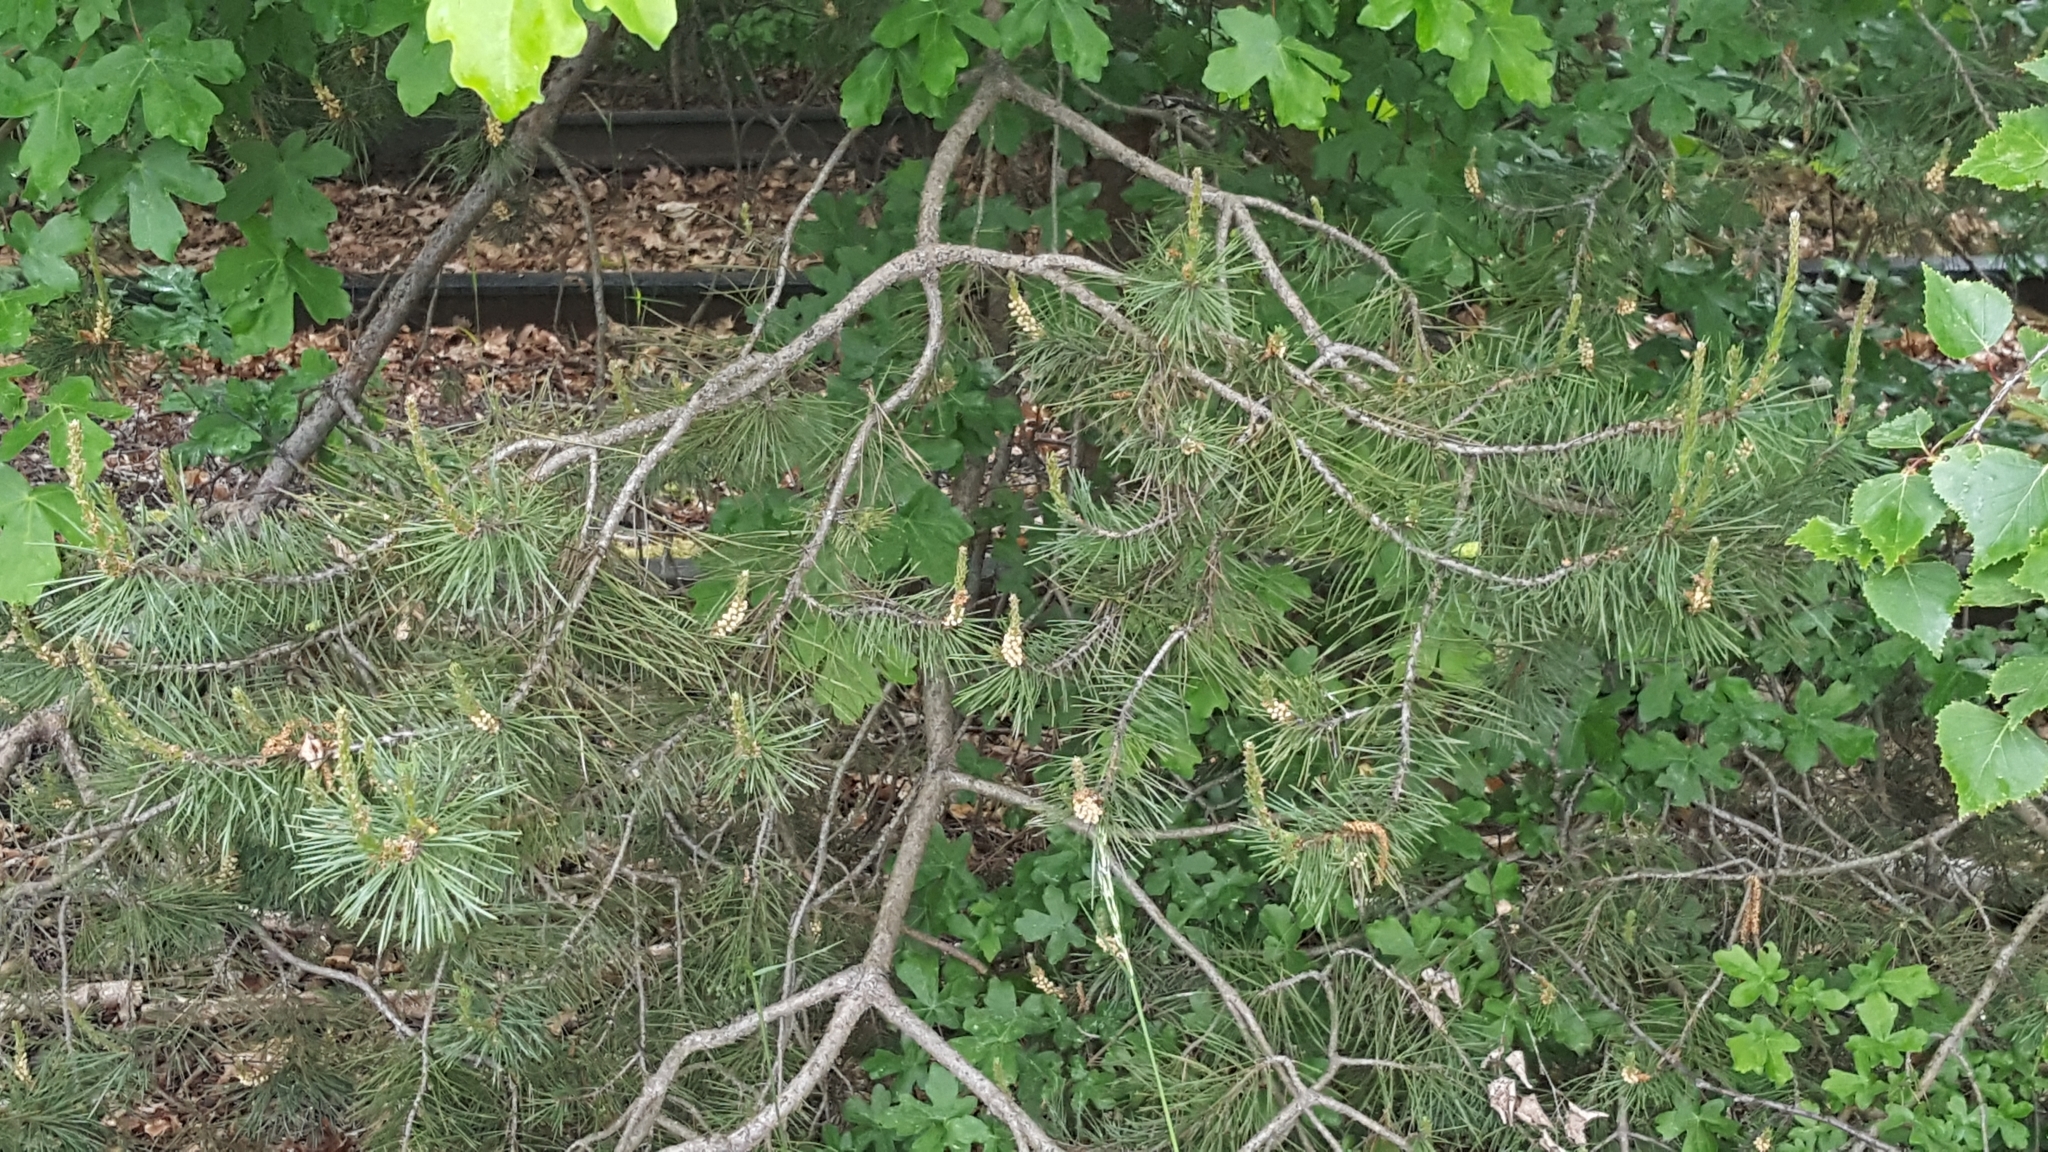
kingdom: Plantae
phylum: Tracheophyta
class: Magnoliopsida
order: Sapindales
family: Sapindaceae
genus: Acer
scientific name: Acer campestre
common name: Field maple
